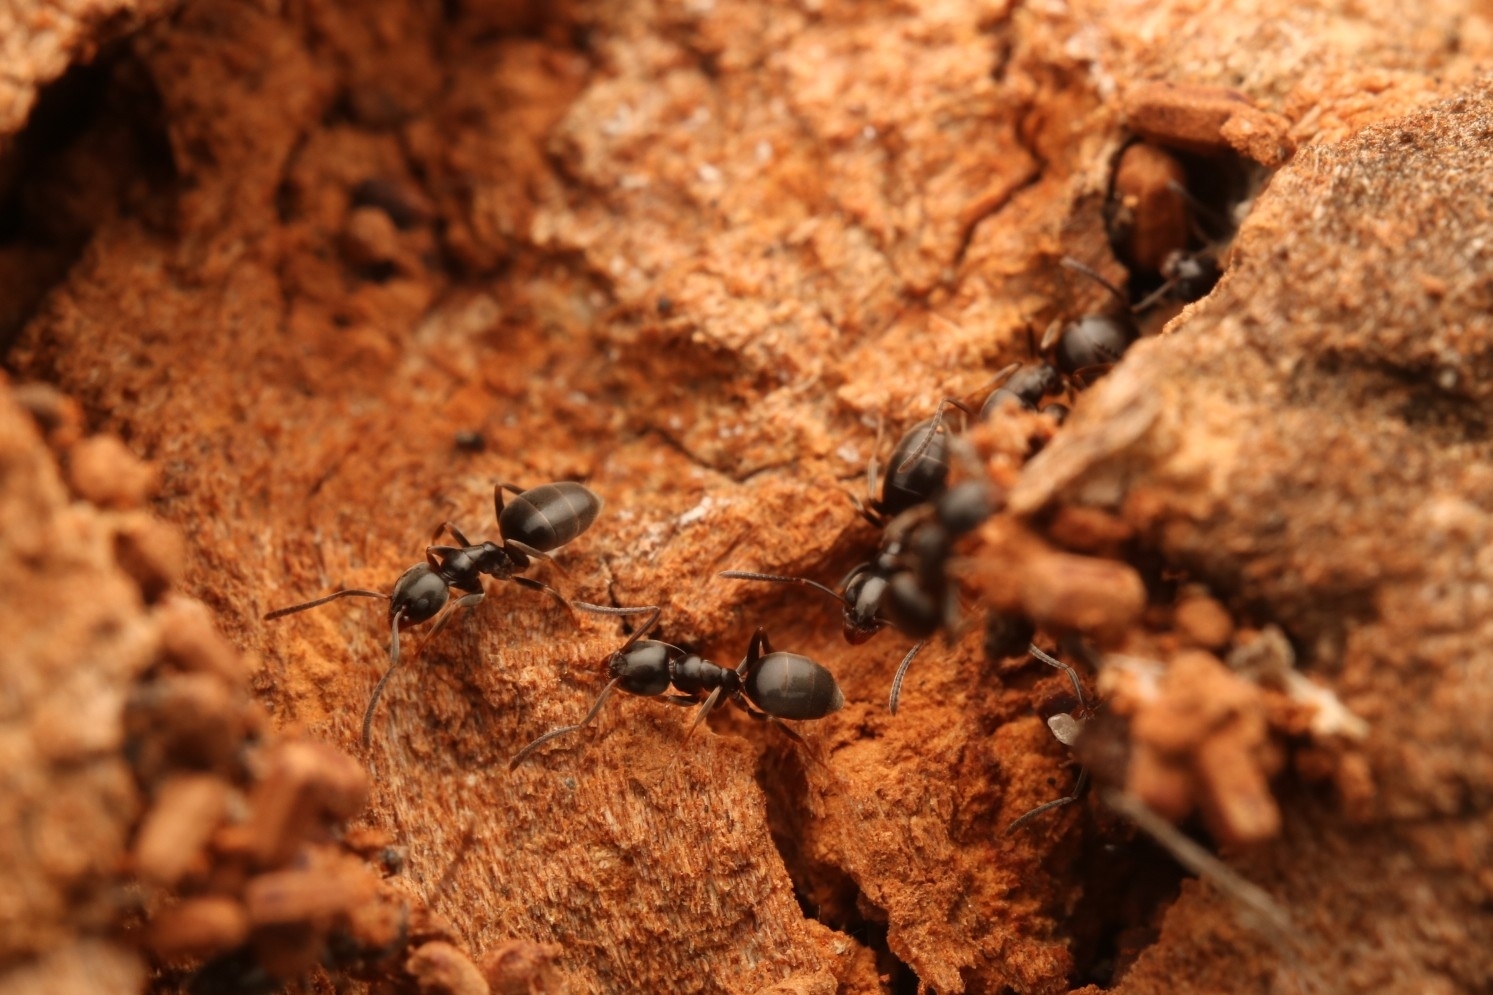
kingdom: Animalia
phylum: Arthropoda
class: Insecta
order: Hymenoptera
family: Formicidae
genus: Tapinoma
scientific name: Tapinoma sessile
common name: Odorous house ant
